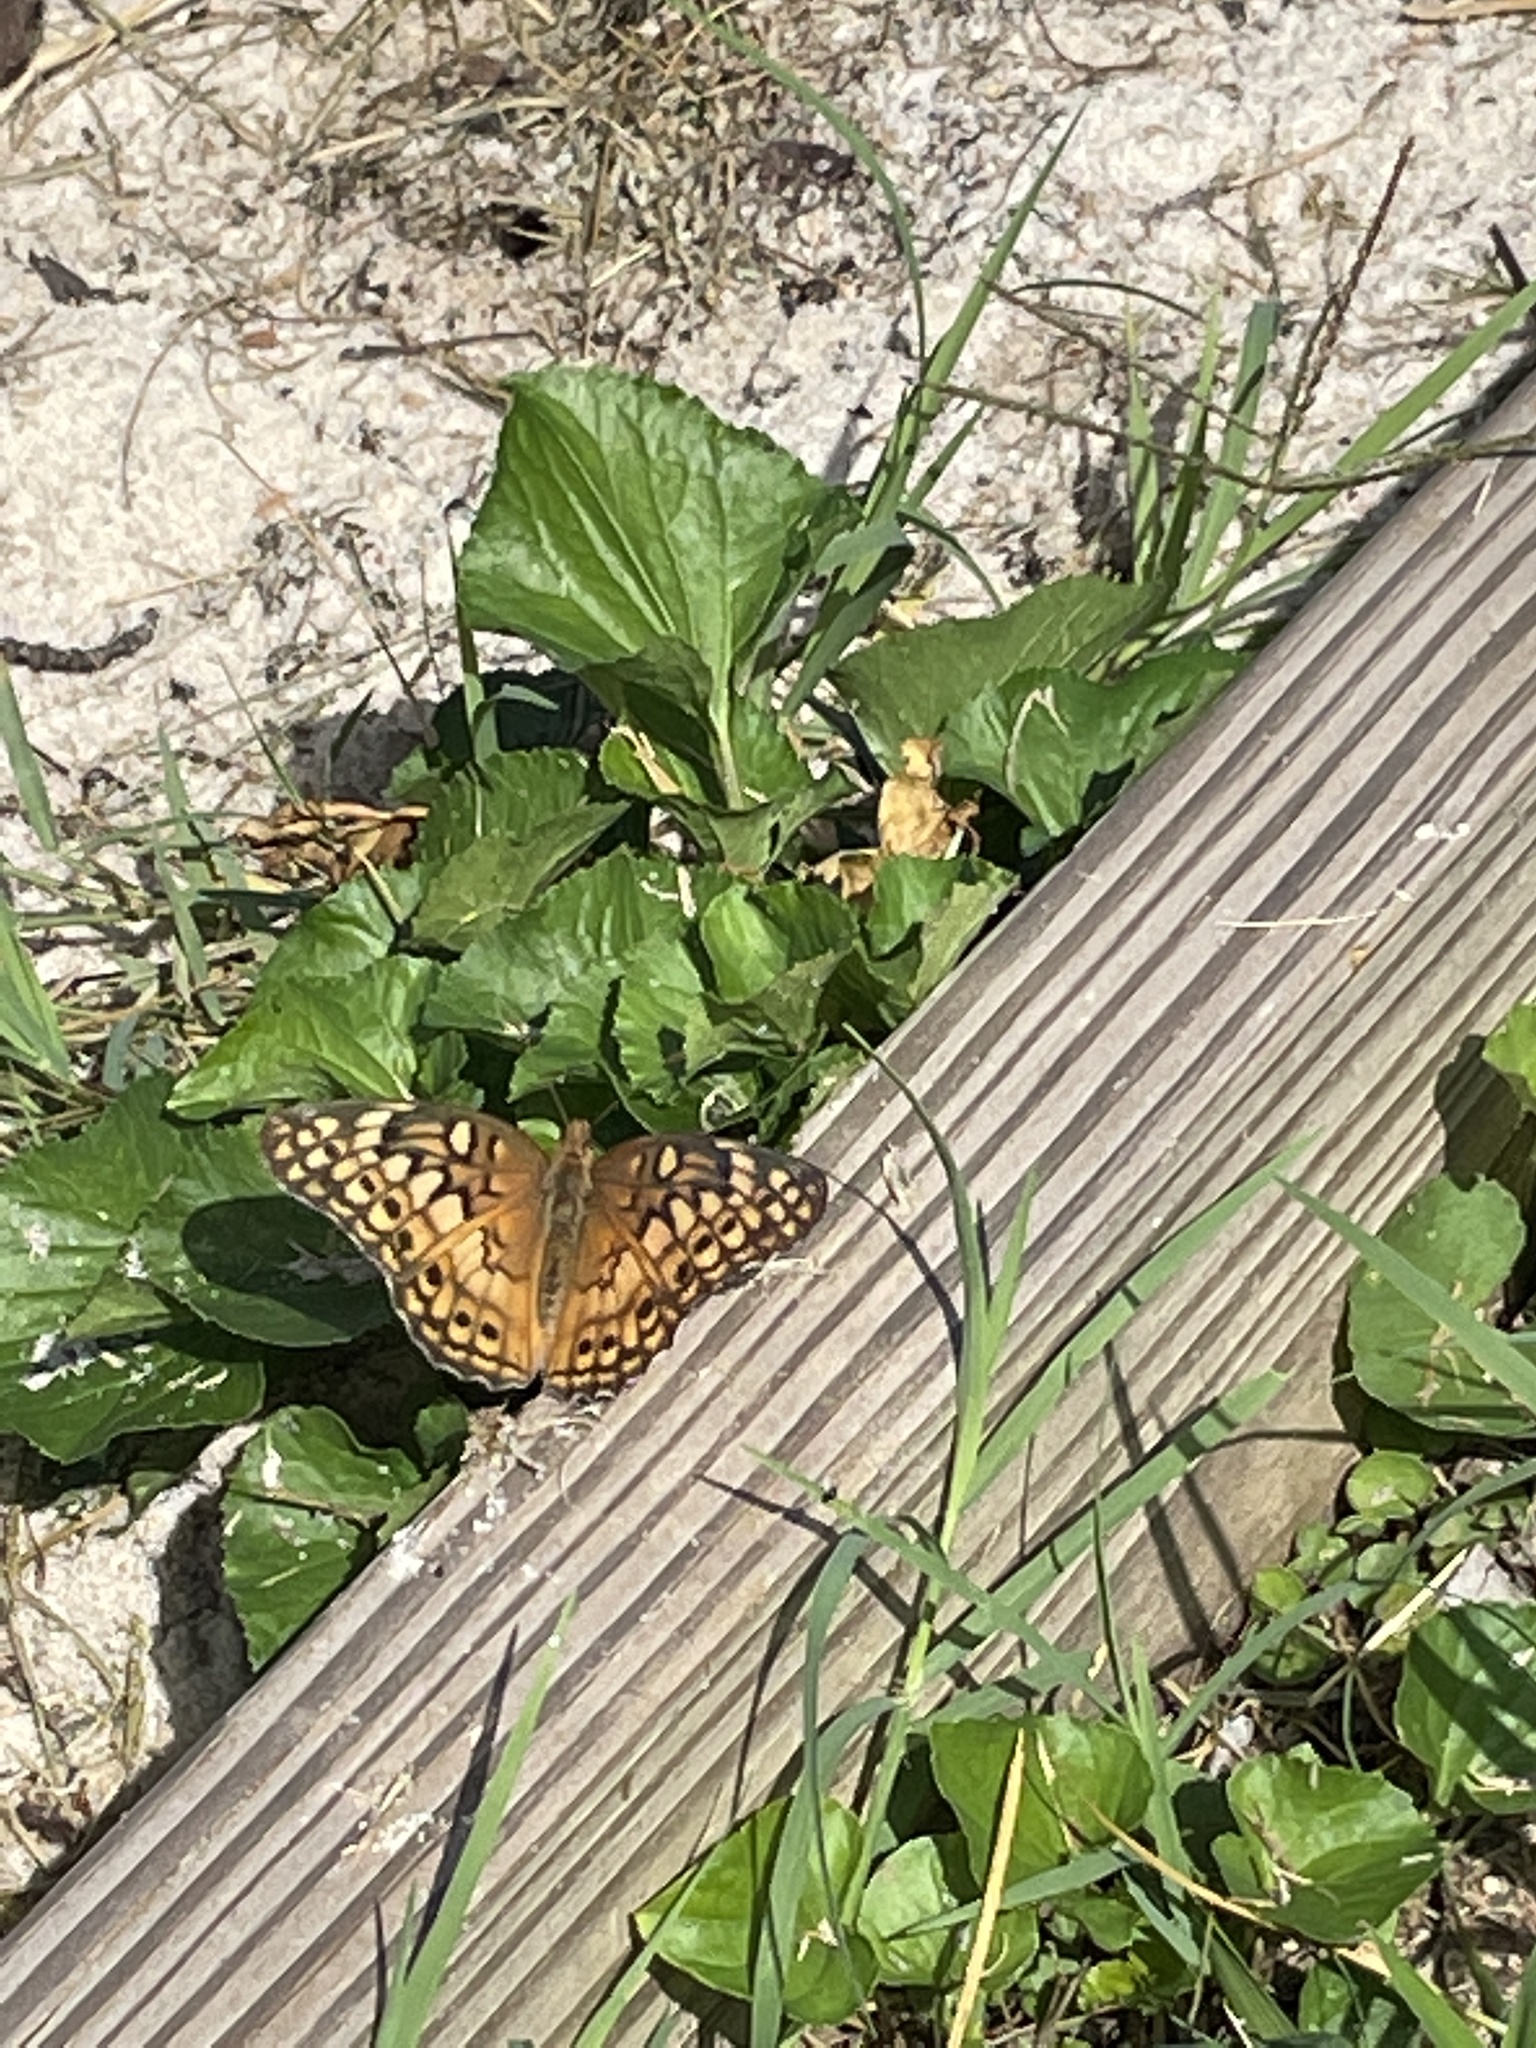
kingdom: Animalia
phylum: Arthropoda
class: Insecta
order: Lepidoptera
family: Nymphalidae
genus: Euptoieta
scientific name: Euptoieta claudia
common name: Variegated fritillary
